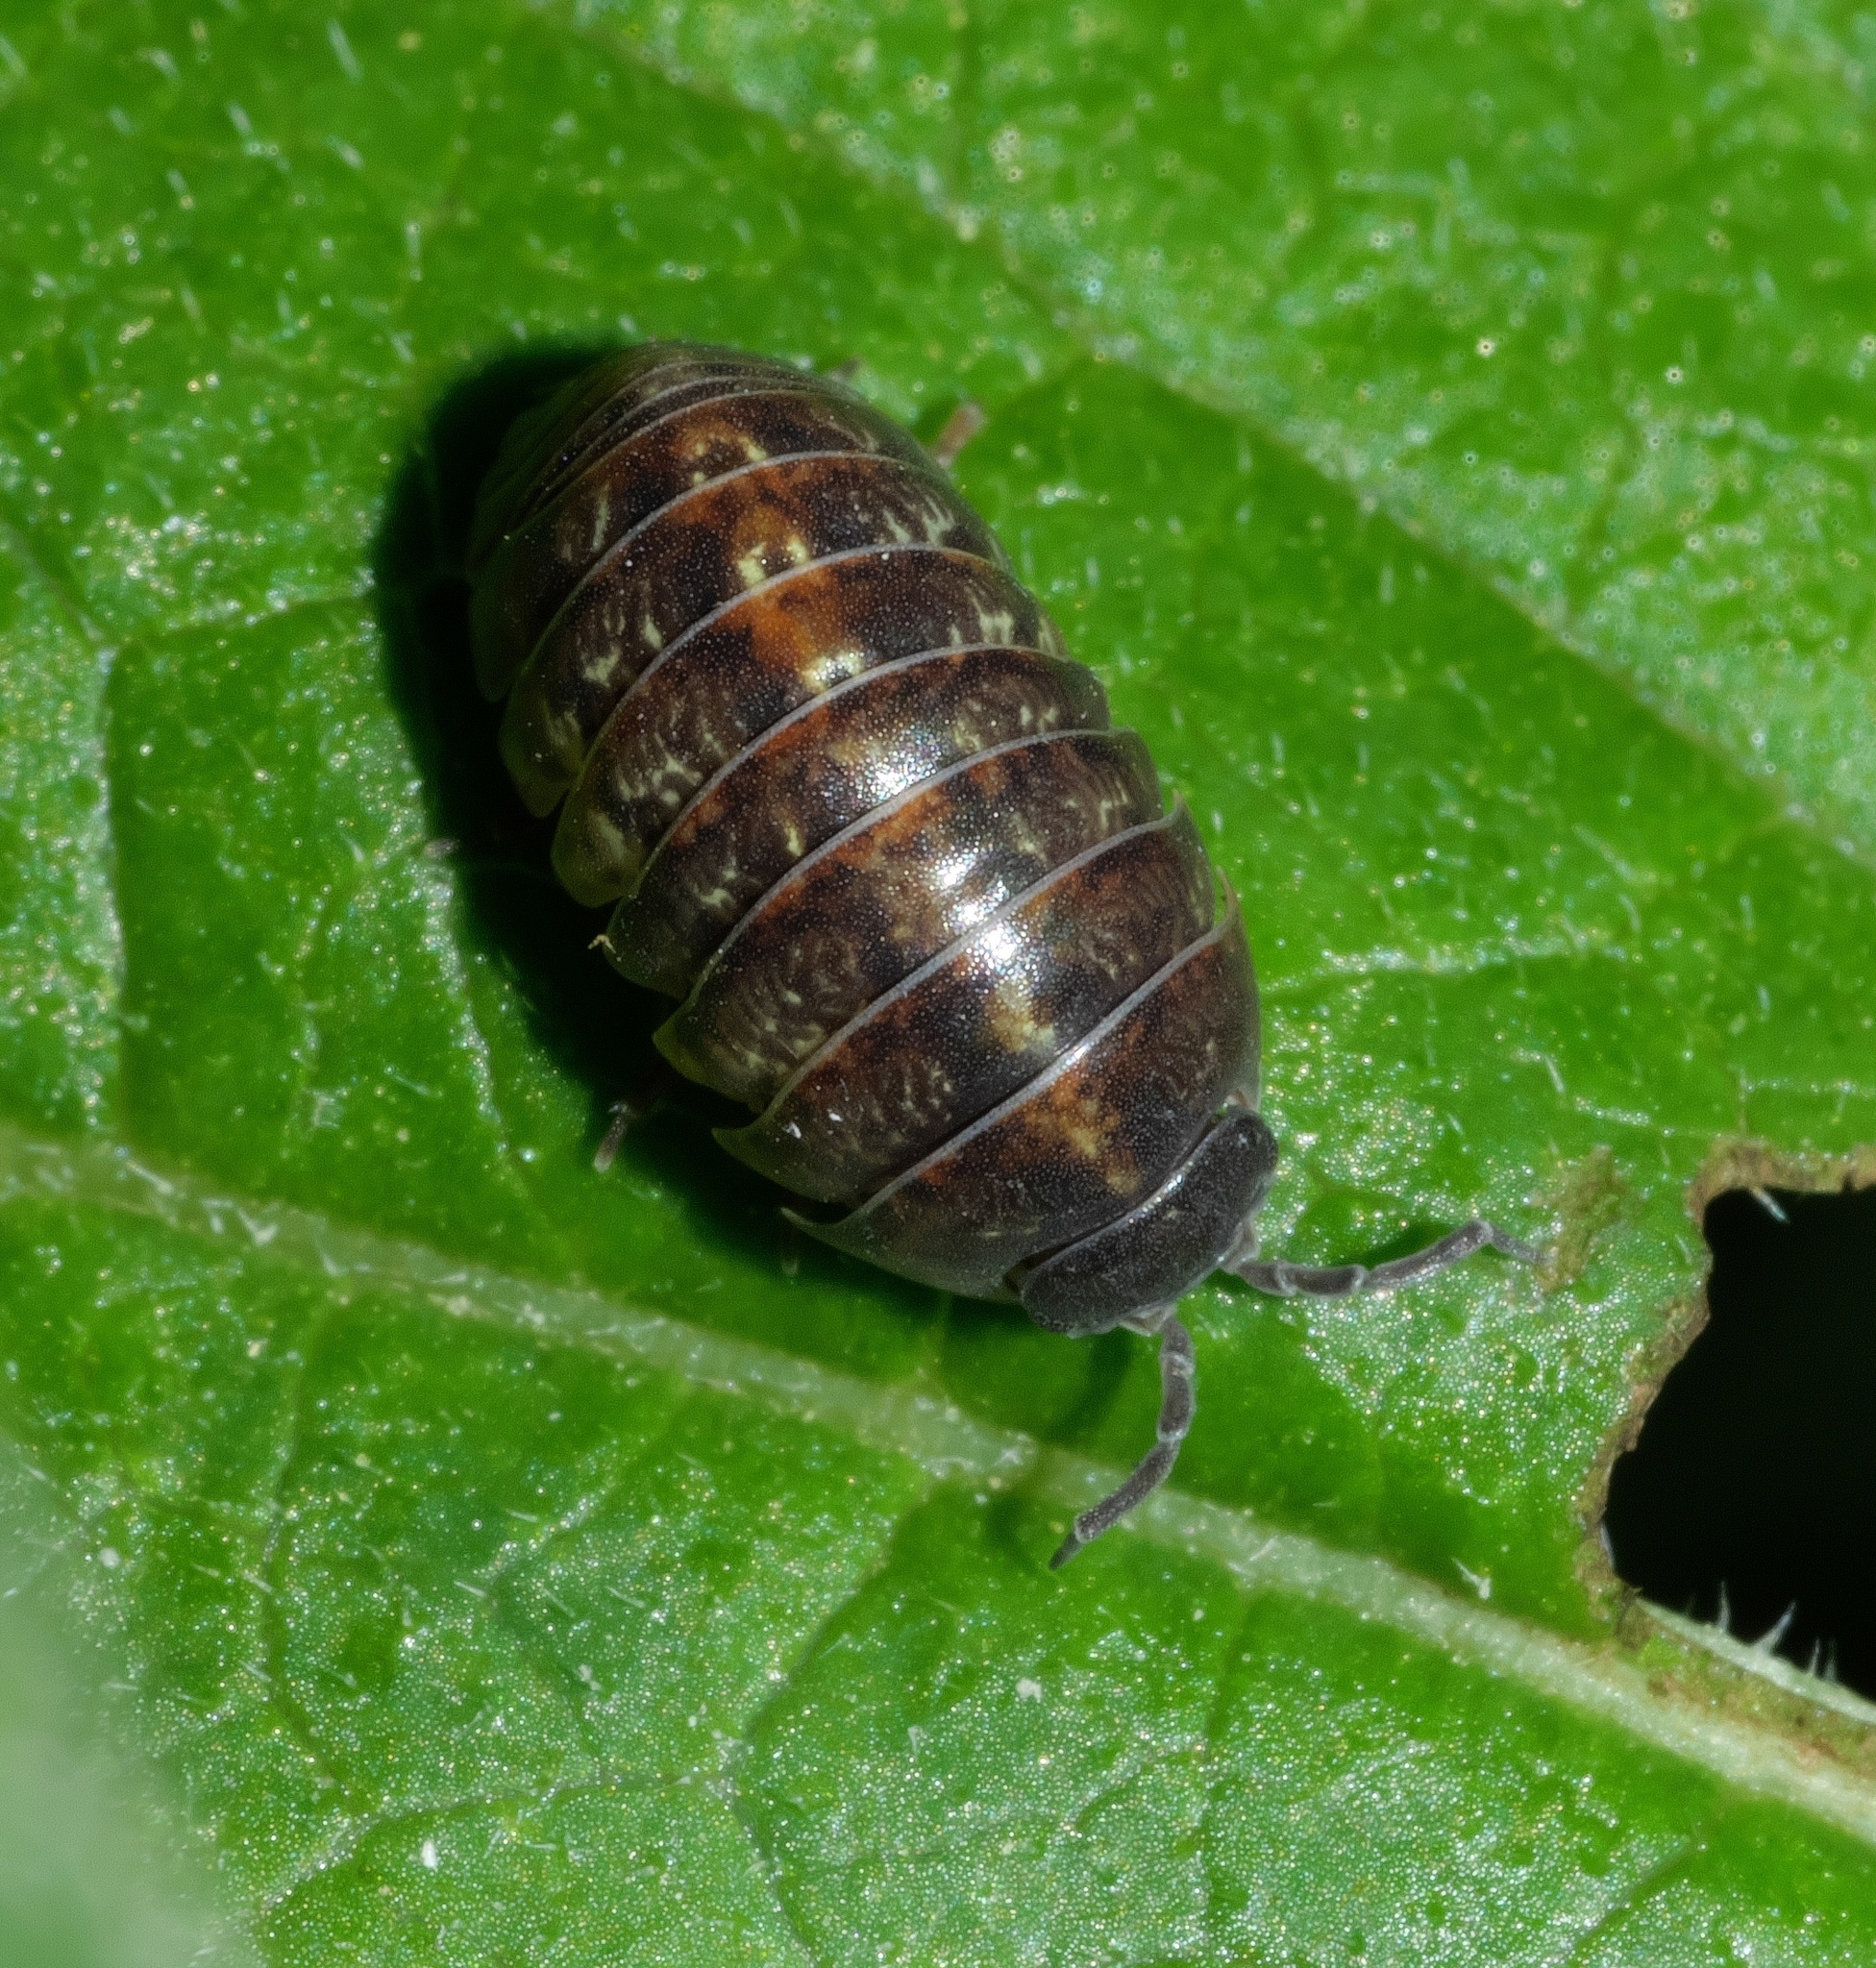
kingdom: Animalia
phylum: Arthropoda
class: Malacostraca
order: Isopoda
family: Armadillidiidae
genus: Armadillidium
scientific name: Armadillidium vulgare
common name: Common pill woodlouse
